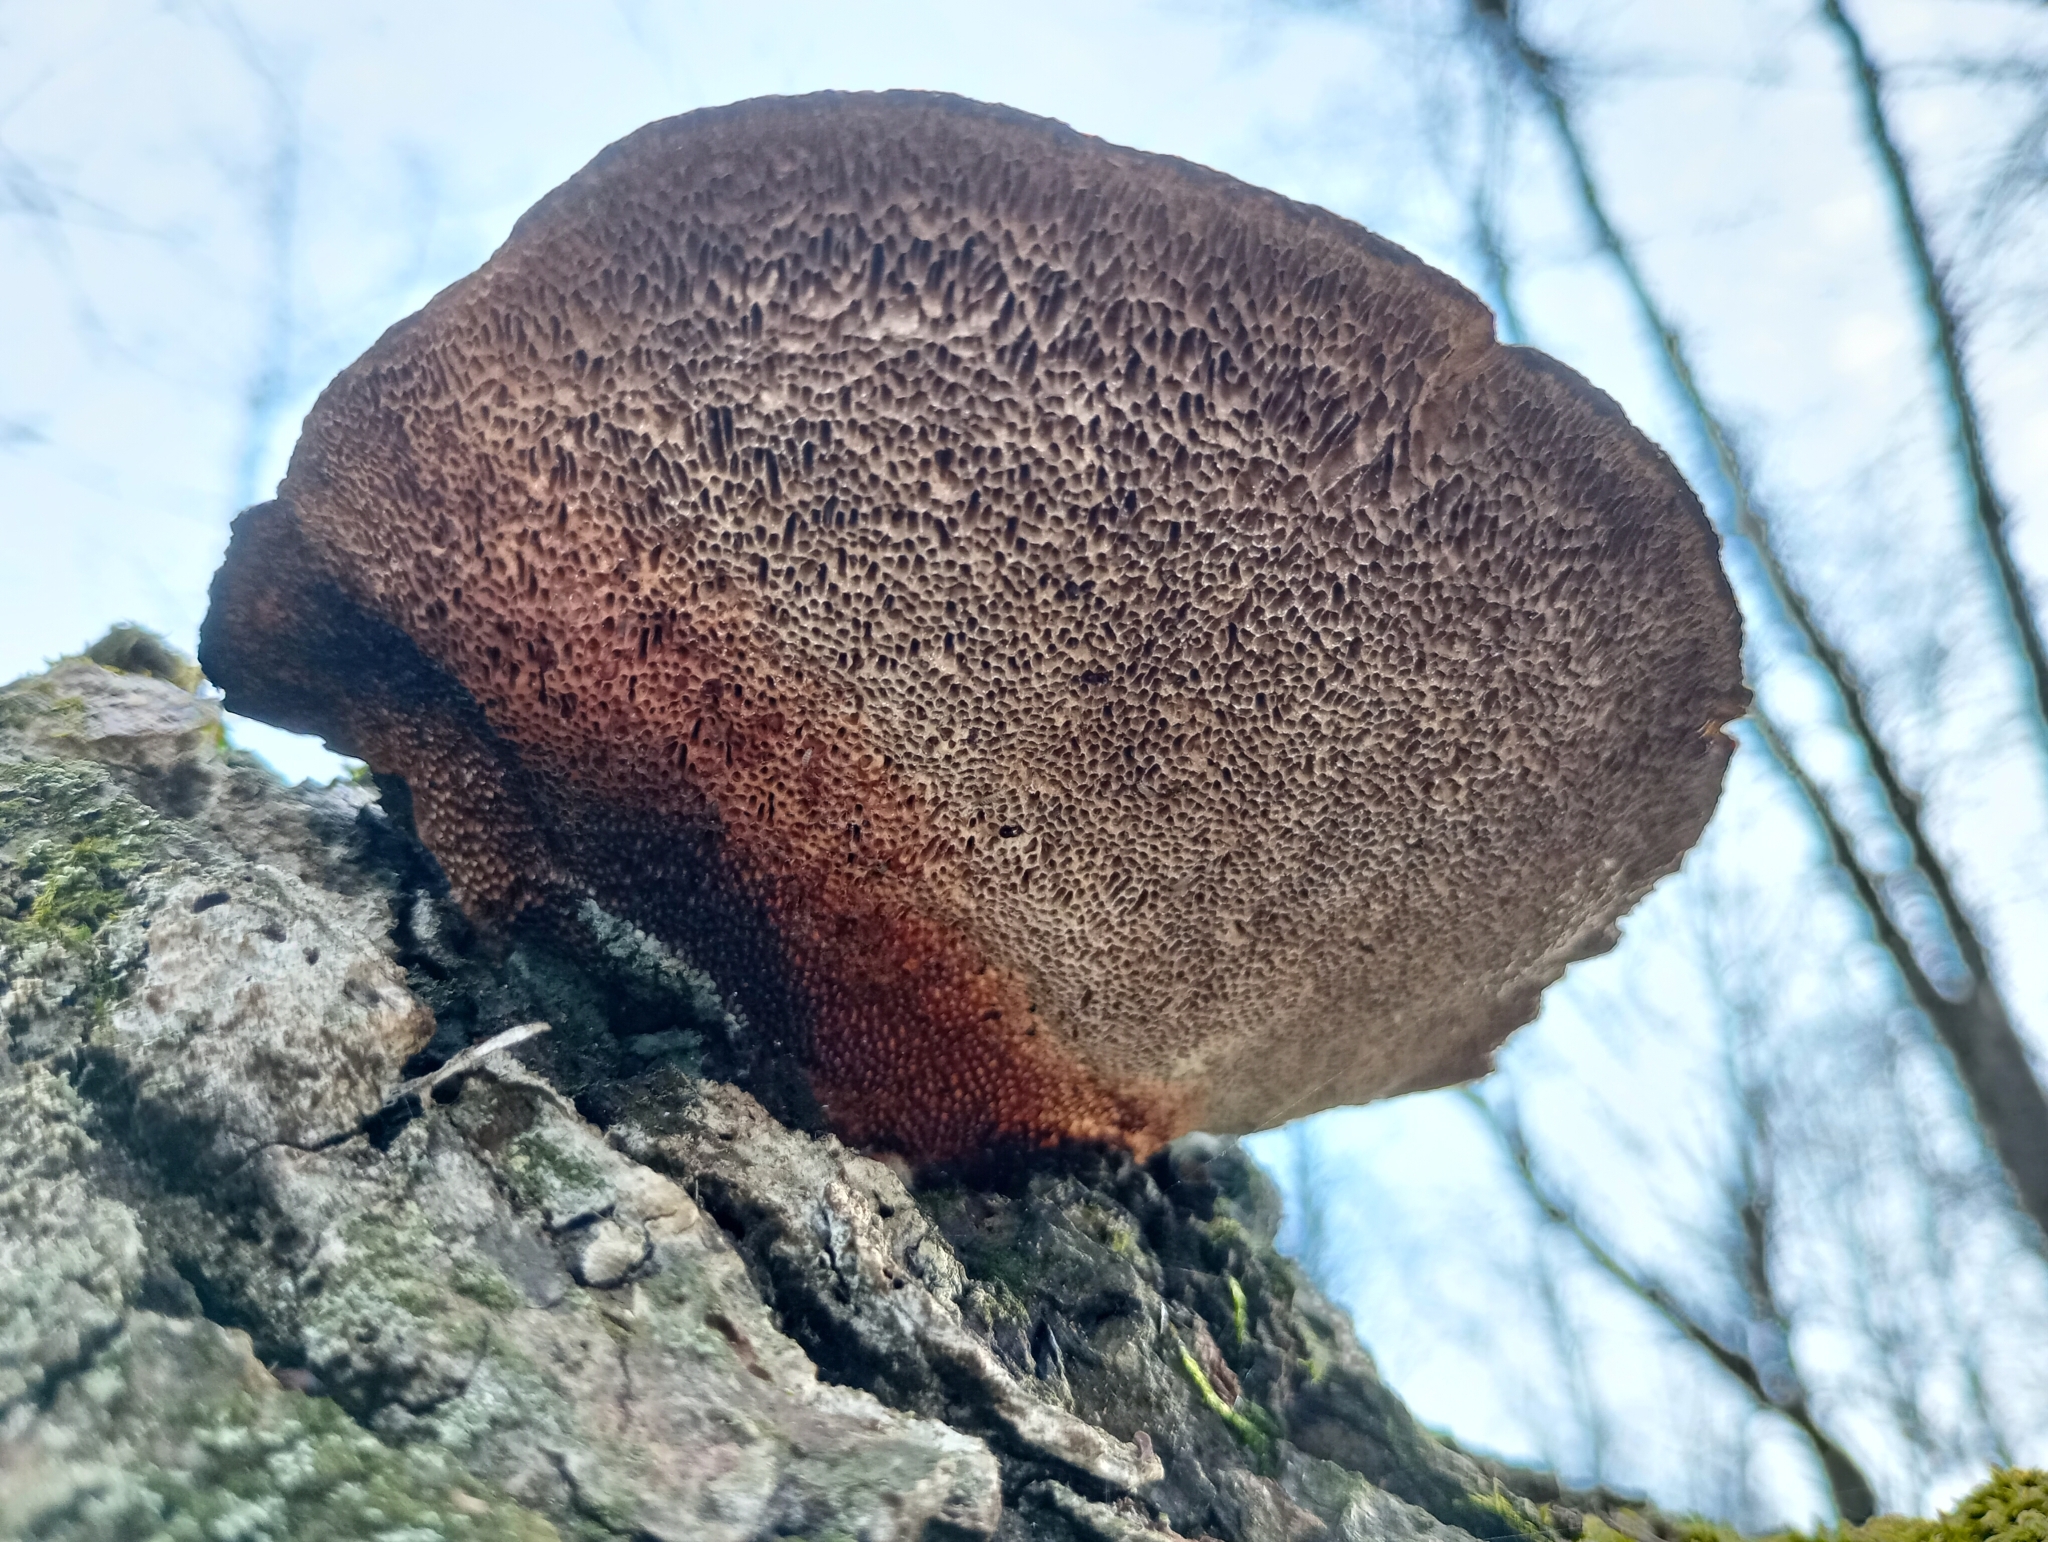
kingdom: Fungi
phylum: Basidiomycota
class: Agaricomycetes
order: Polyporales
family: Polyporaceae
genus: Daedaleopsis
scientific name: Daedaleopsis confragosa
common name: Blushing bracket
